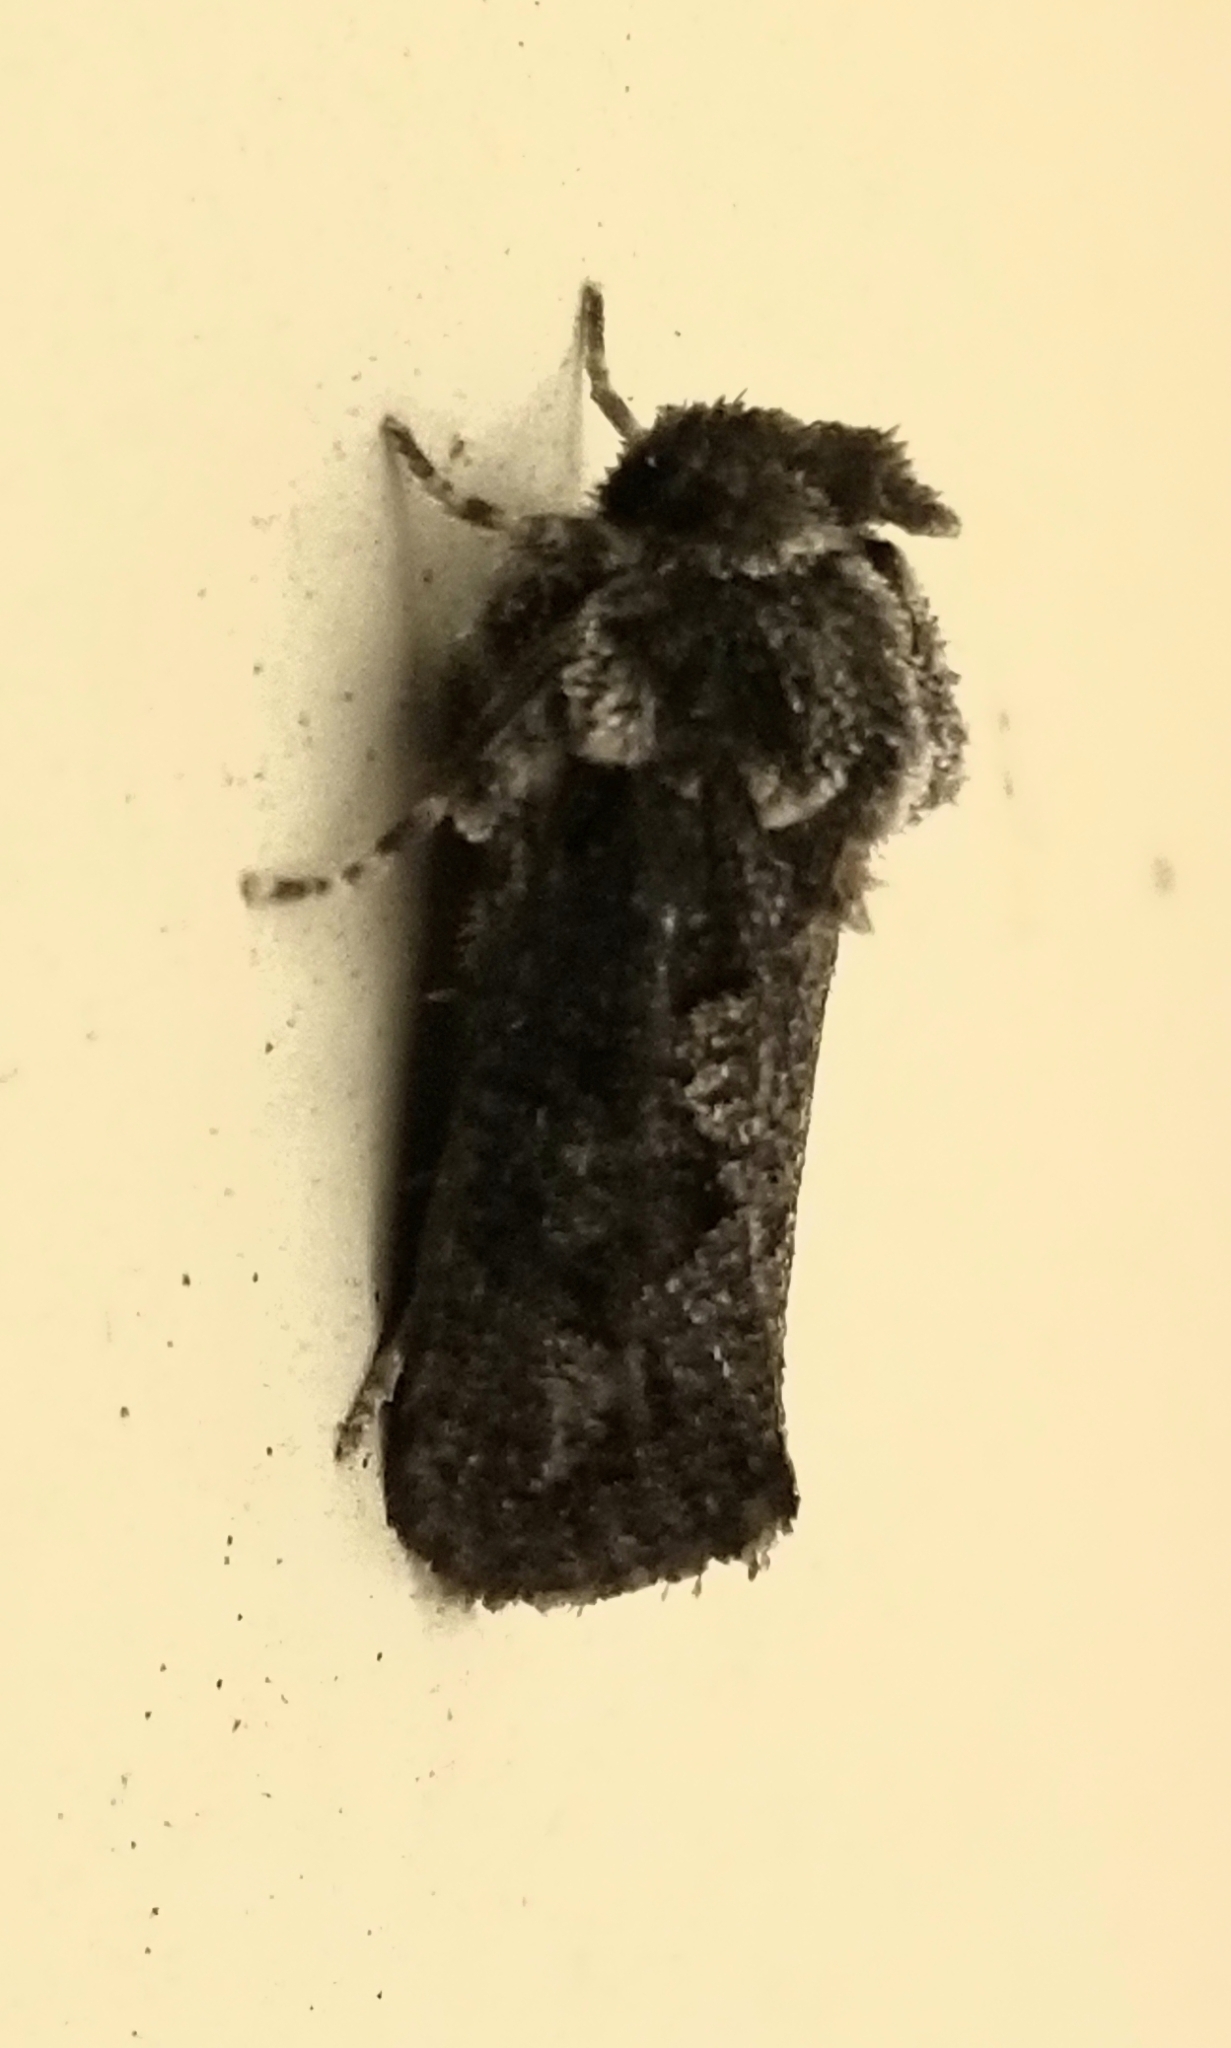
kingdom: Animalia
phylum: Arthropoda
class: Insecta
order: Lepidoptera
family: Tineidae
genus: Acrolophus
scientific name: Acrolophus arcanella
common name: Arcane grass tubeworm moth
